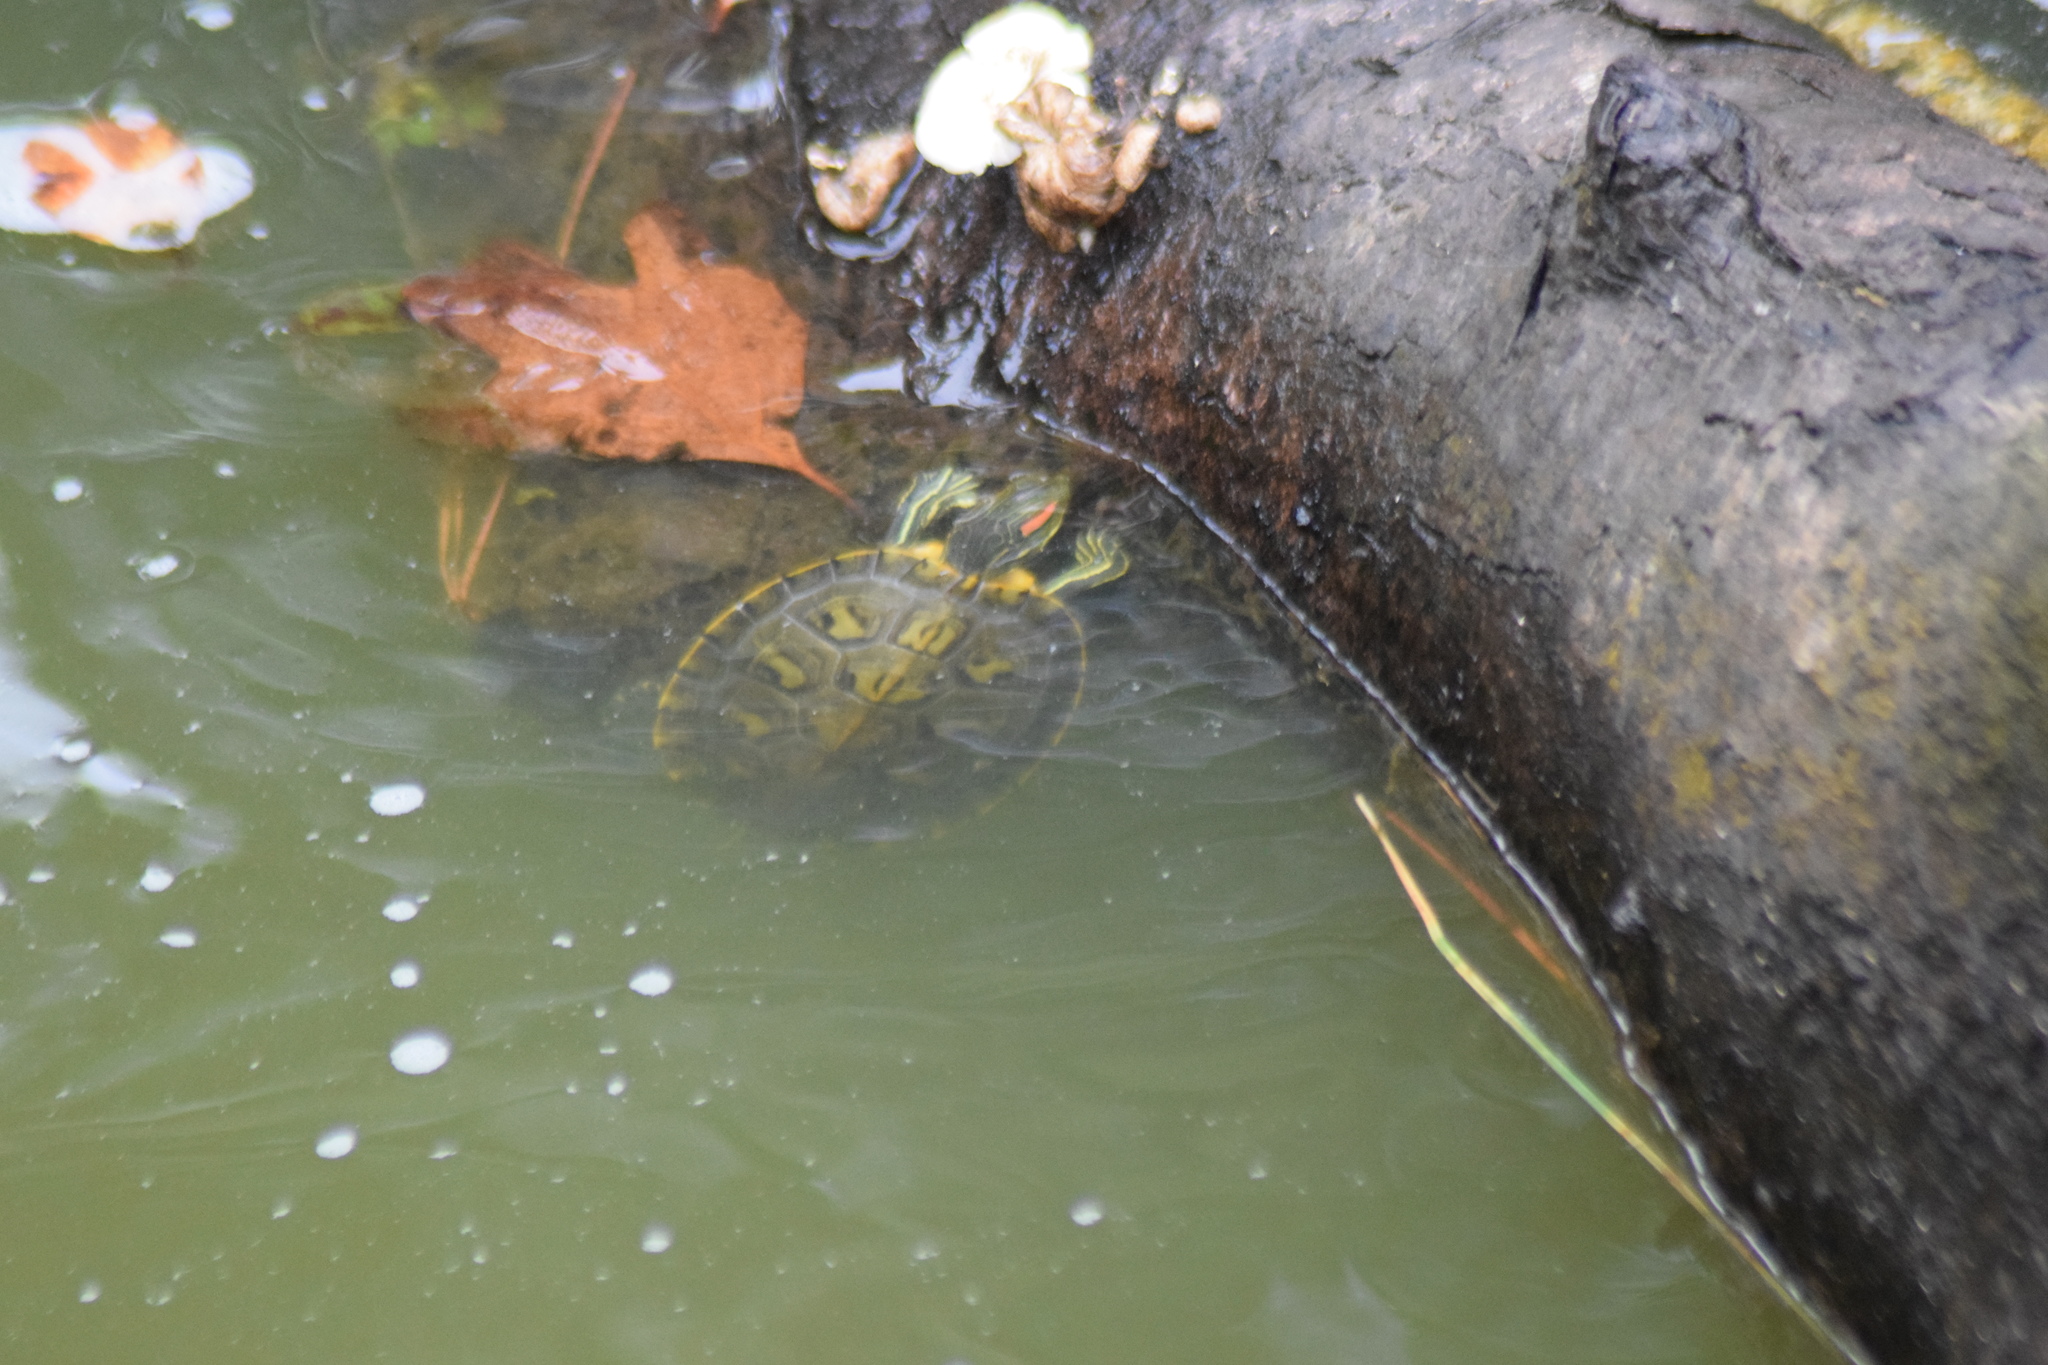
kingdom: Animalia
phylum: Chordata
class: Testudines
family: Emydidae
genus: Trachemys
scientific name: Trachemys scripta
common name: Slider
